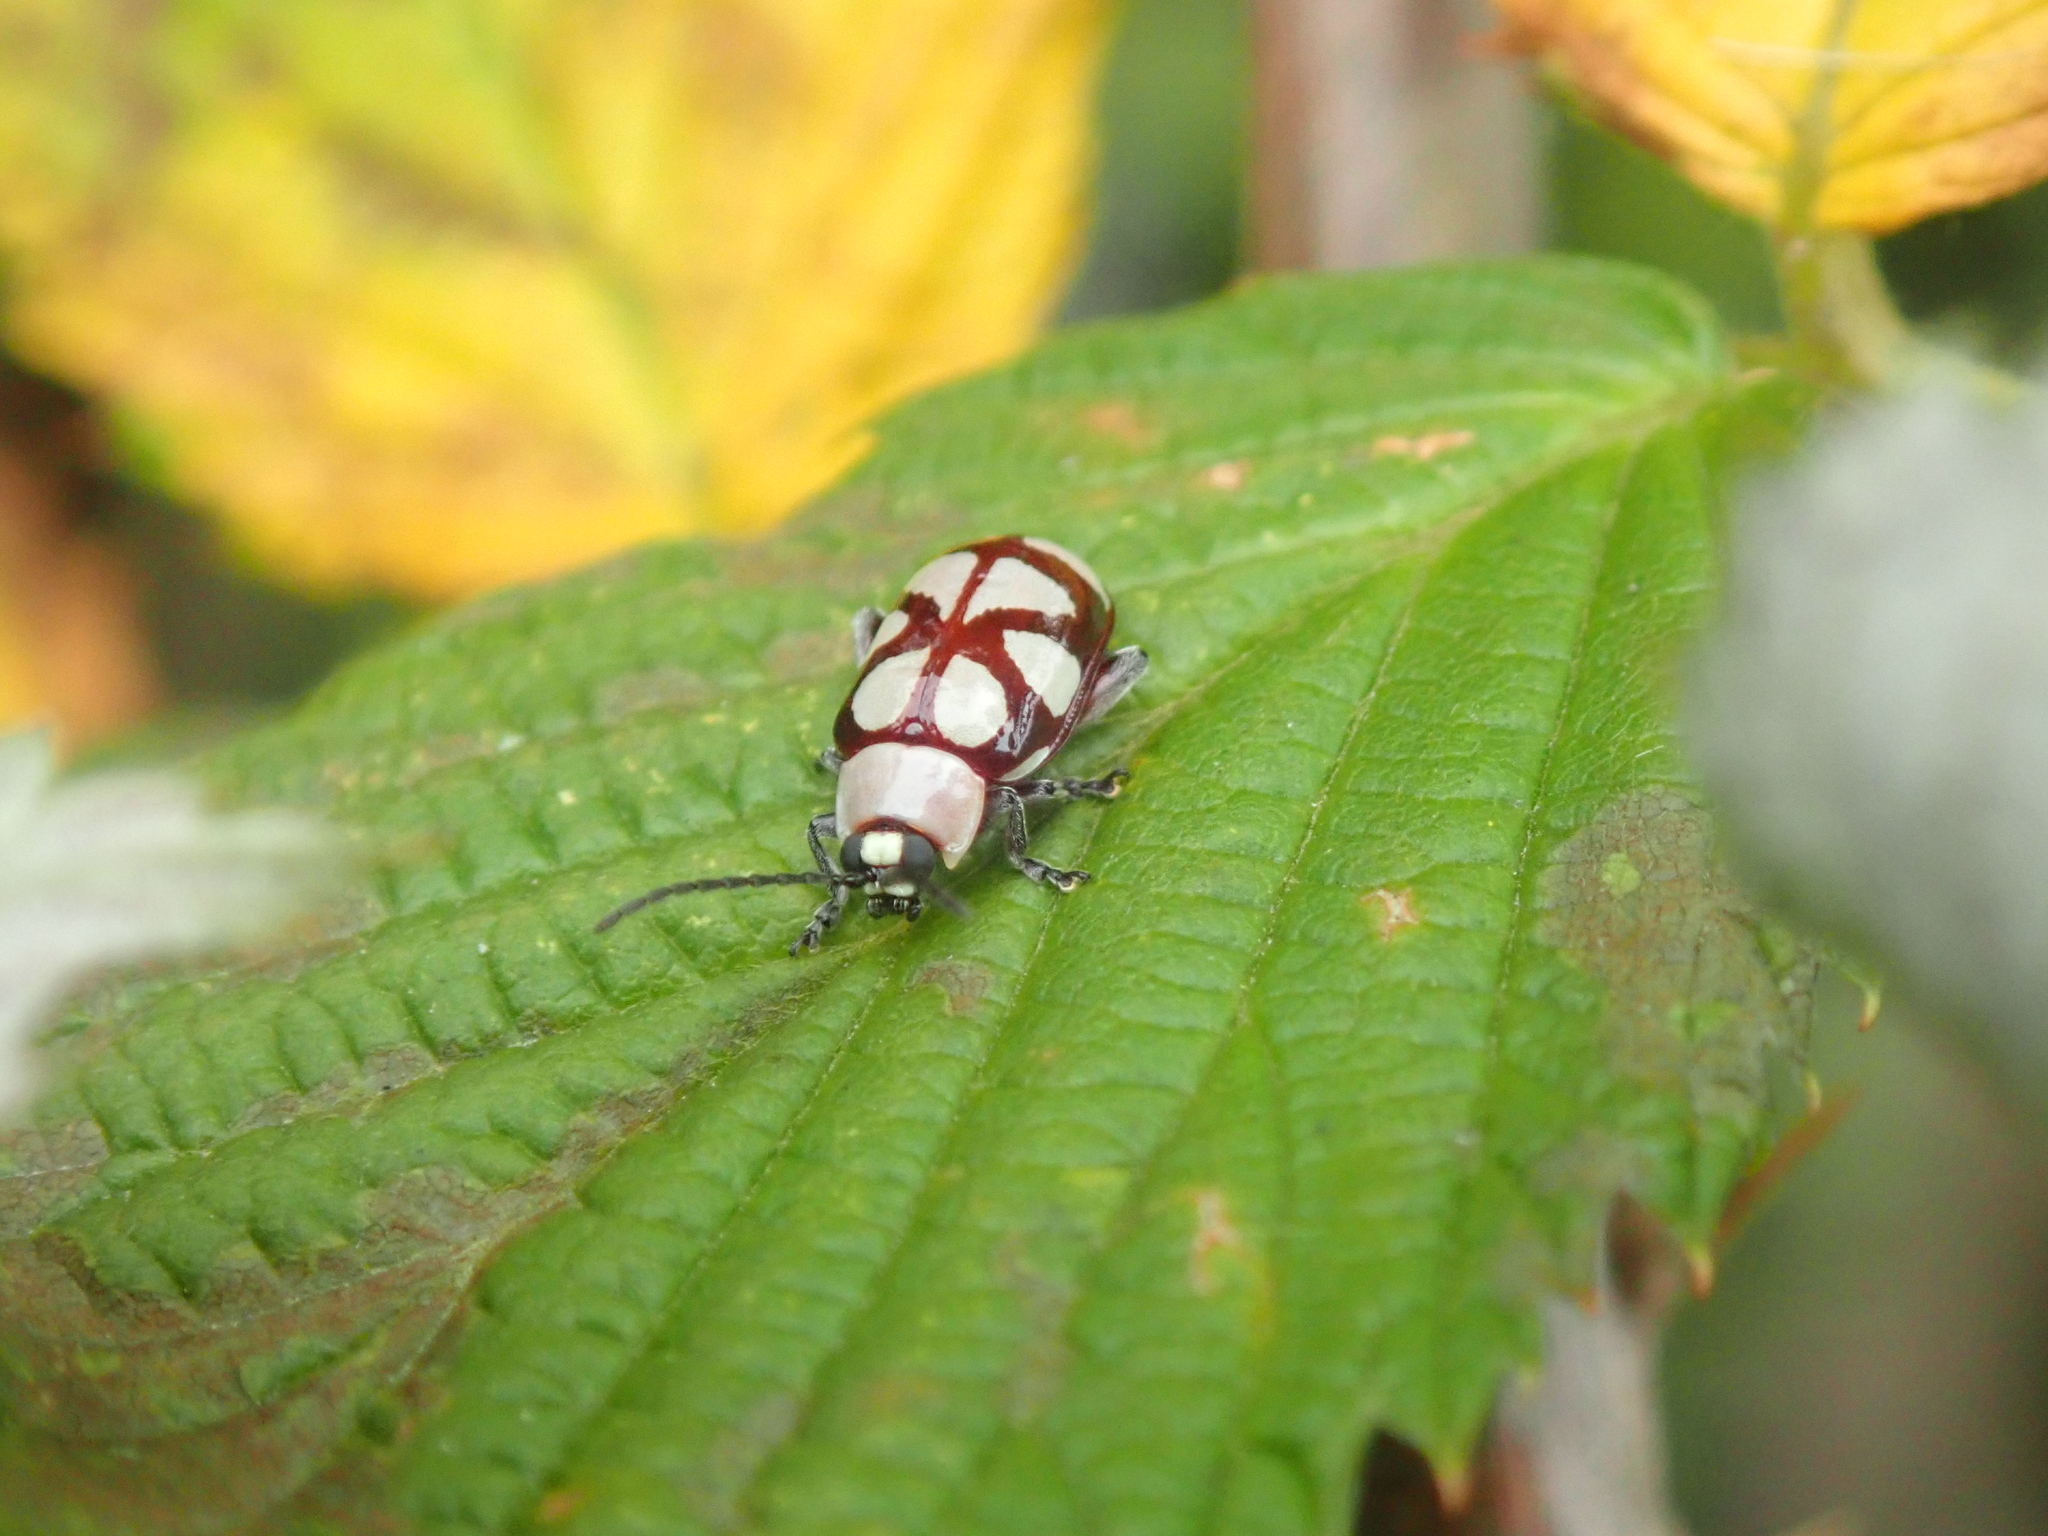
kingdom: Animalia
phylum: Arthropoda
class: Insecta
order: Coleoptera
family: Chrysomelidae
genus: Omophoita
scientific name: Omophoita
